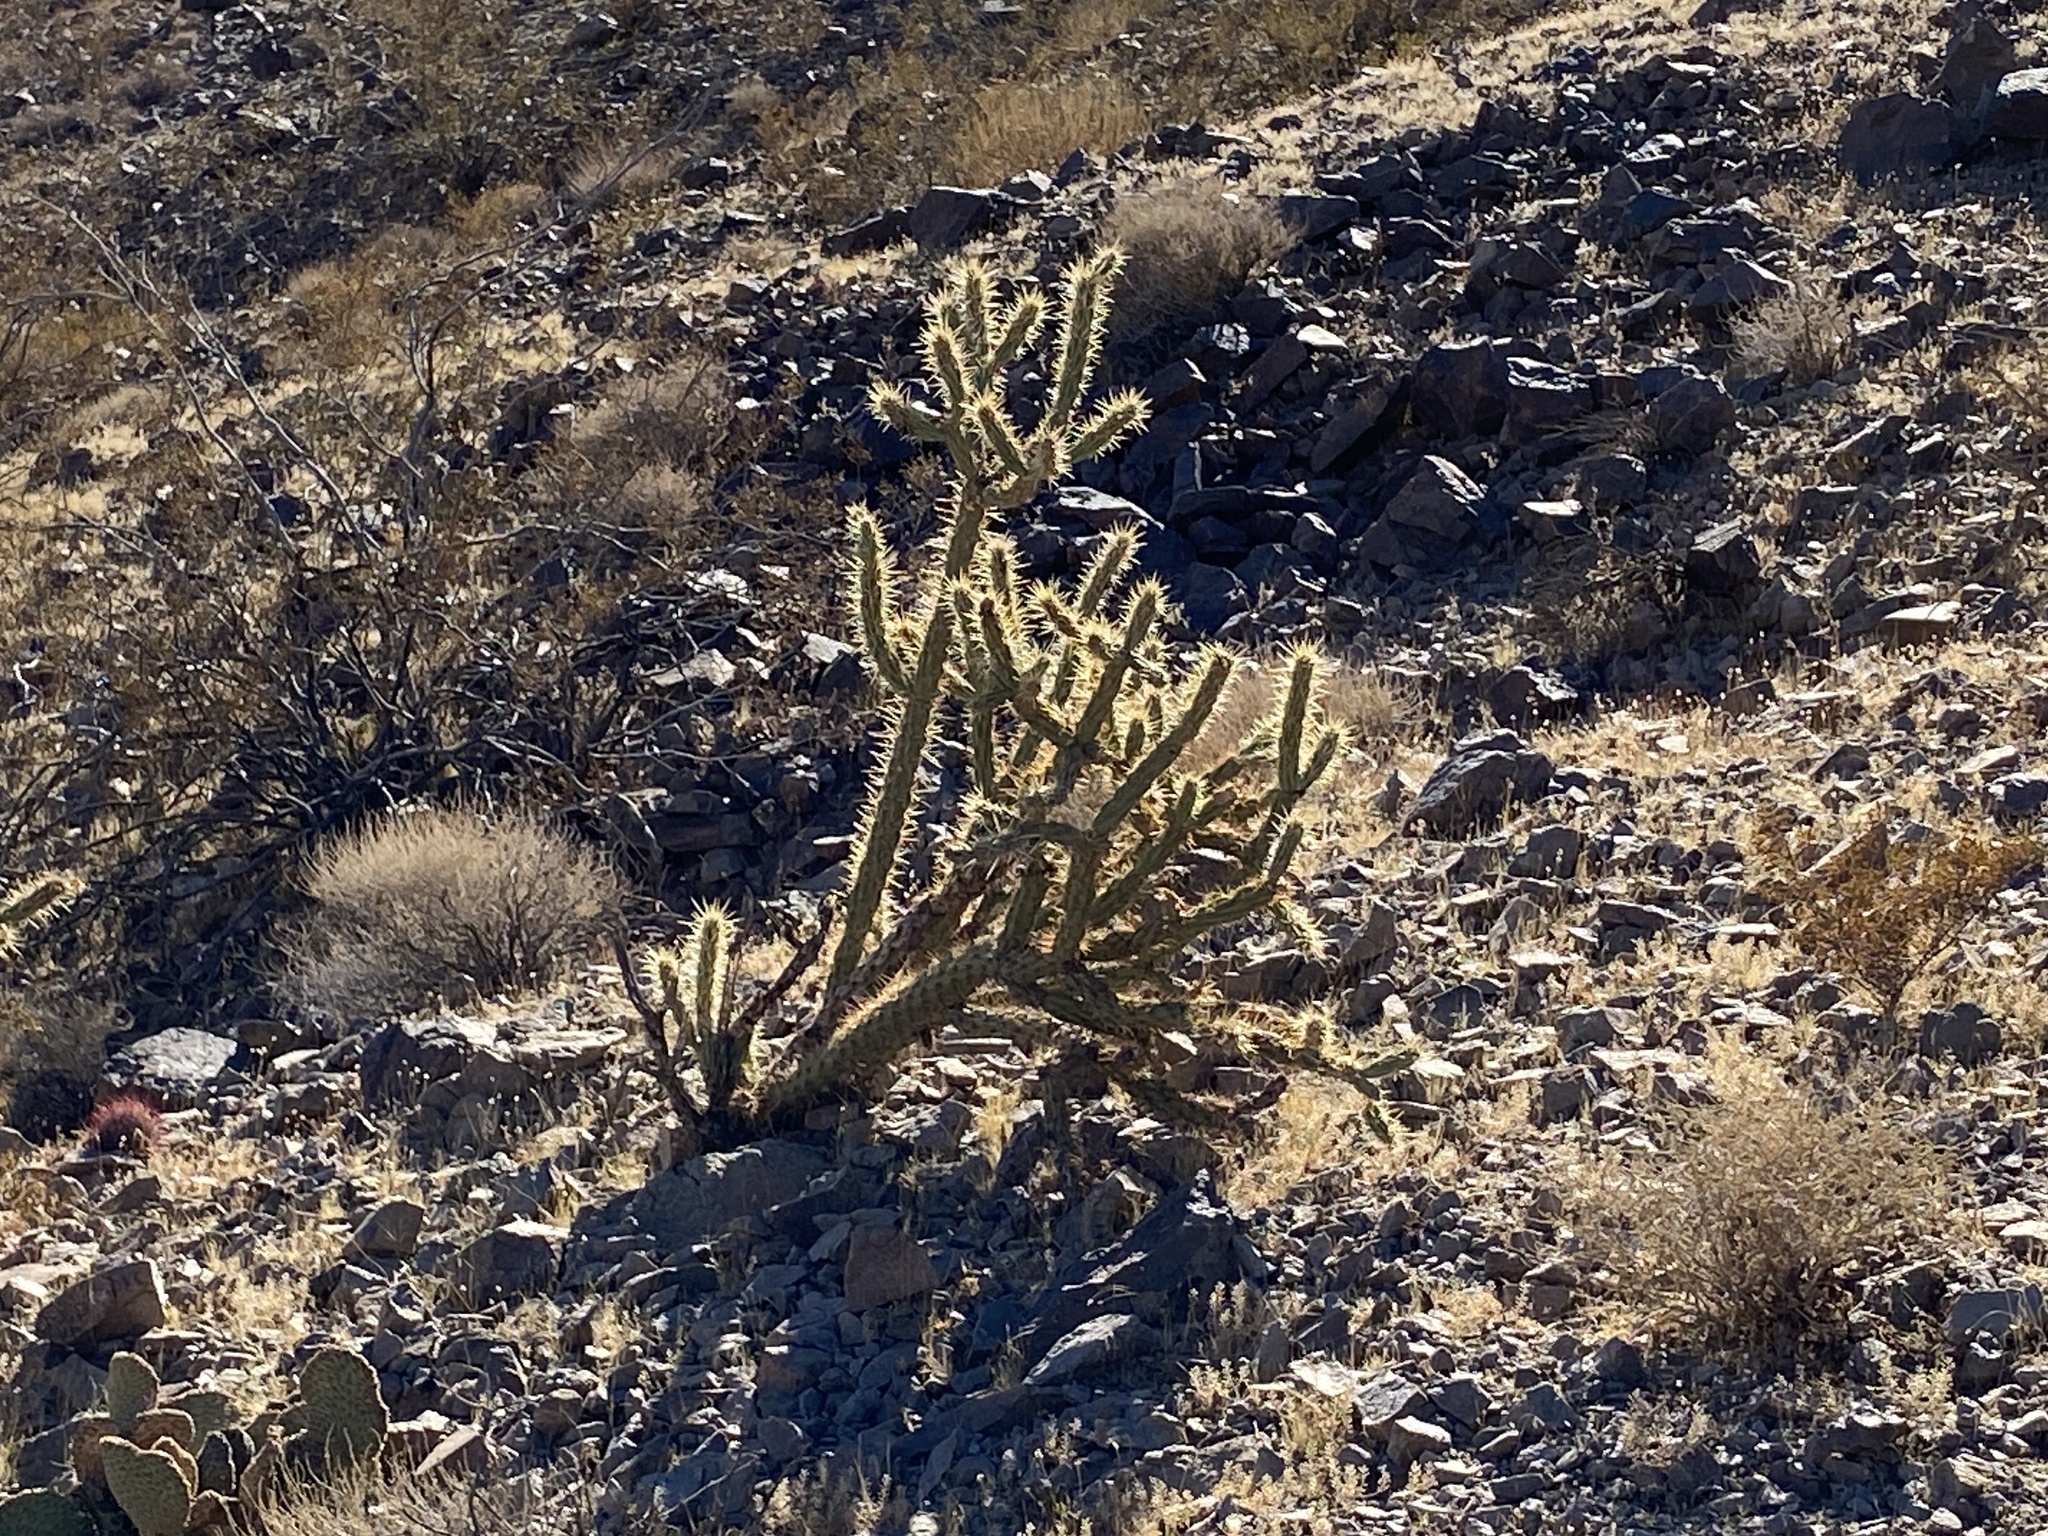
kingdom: Plantae
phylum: Tracheophyta
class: Magnoliopsida
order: Caryophyllales
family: Cactaceae
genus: Cylindropuntia
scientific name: Cylindropuntia acanthocarpa
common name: Buckhorn cholla
